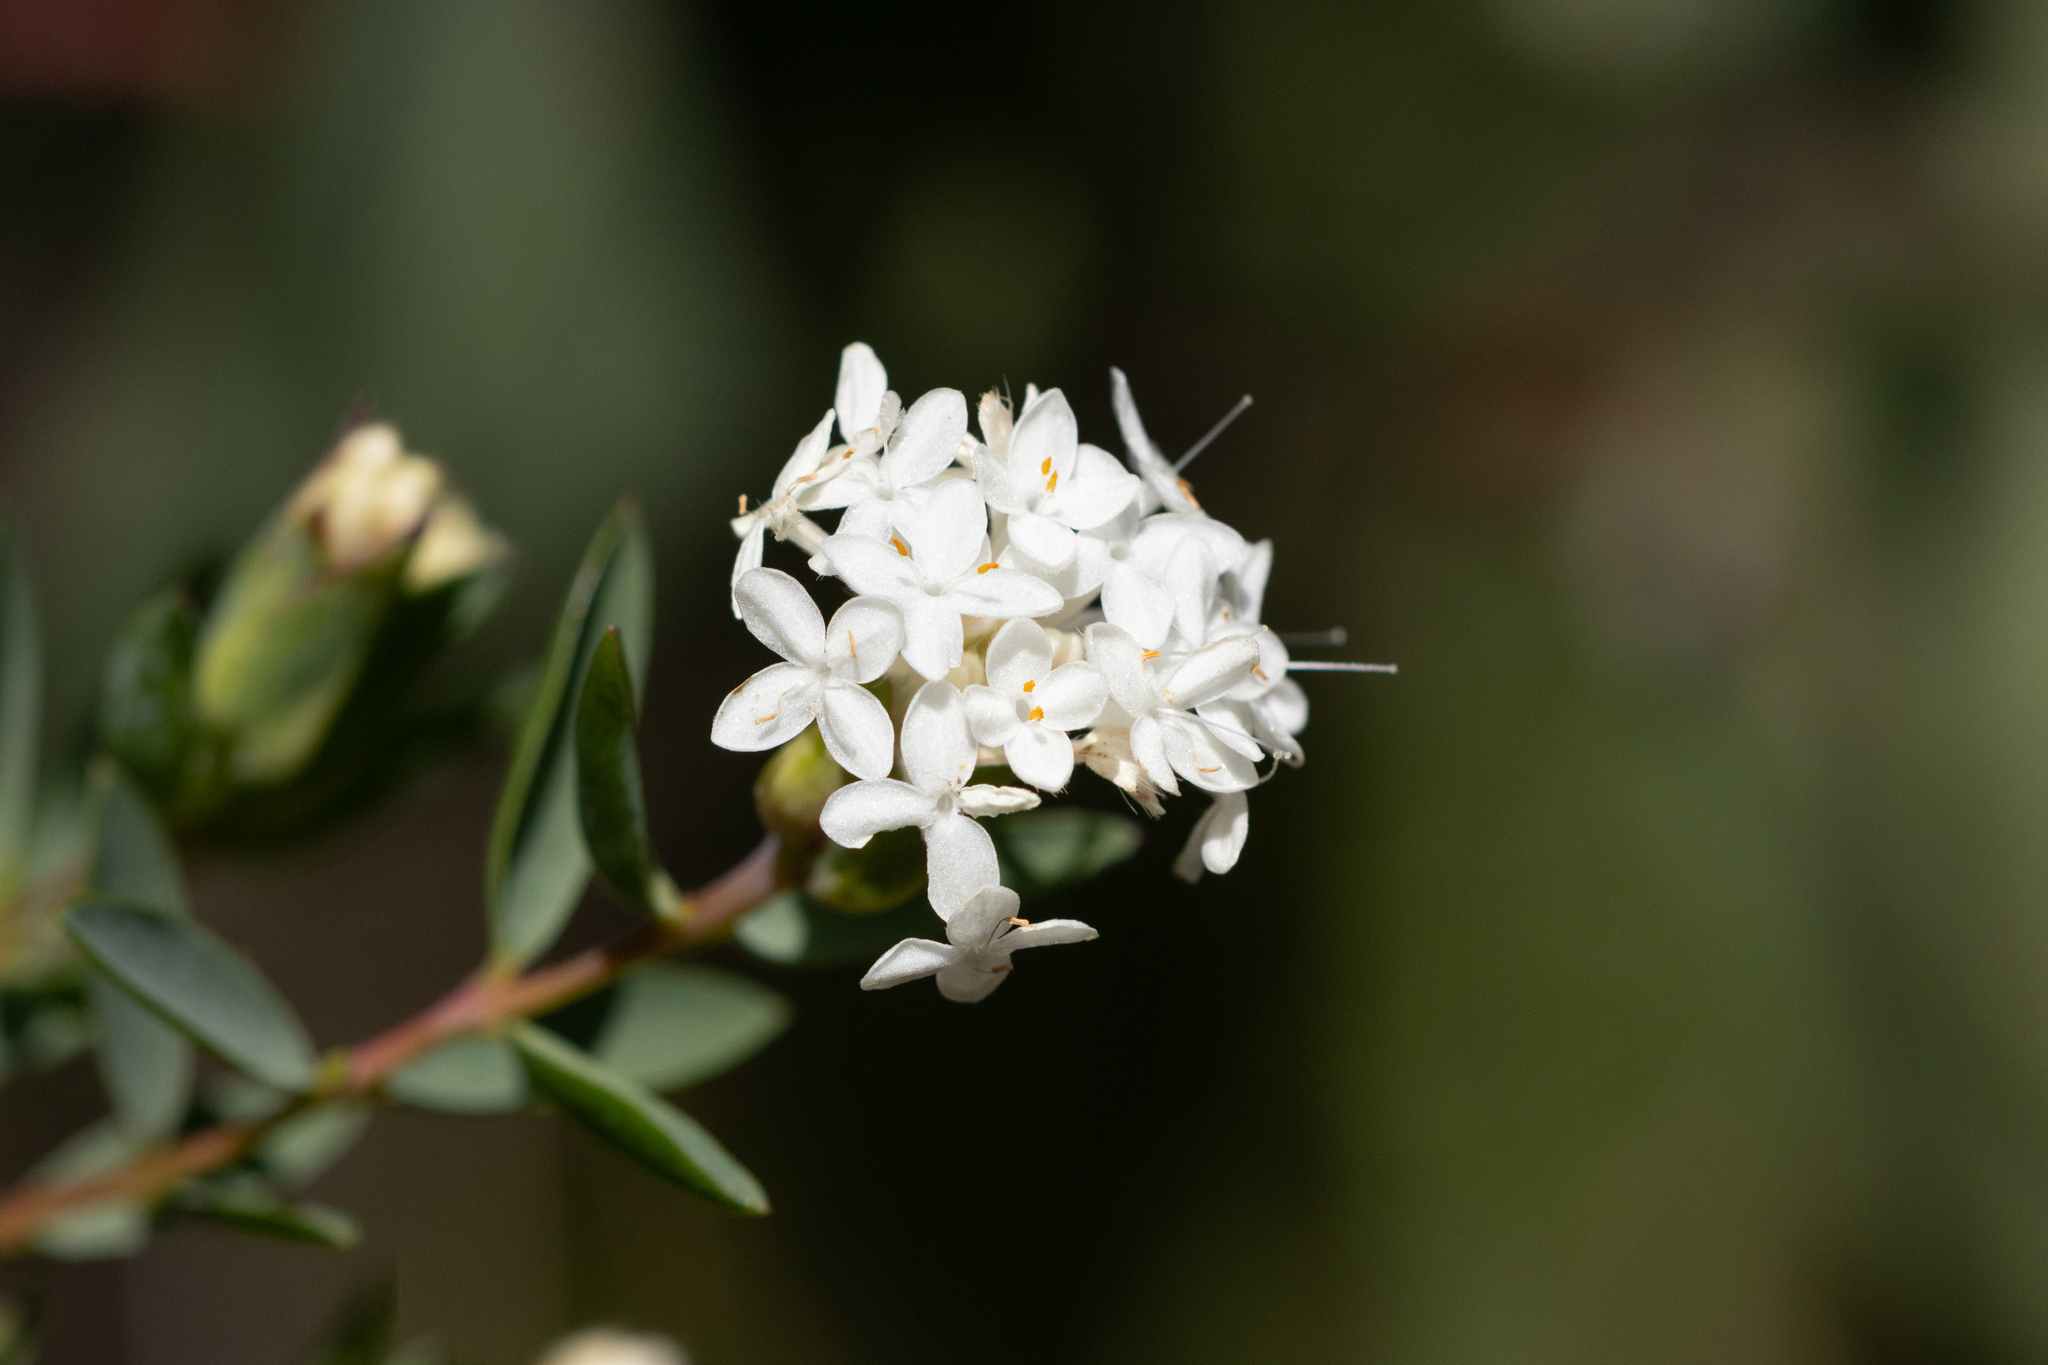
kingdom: Plantae
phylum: Tracheophyta
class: Magnoliopsida
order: Malvales
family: Thymelaeaceae
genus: Pimelea
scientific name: Pimelea glauca
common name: Smooth riceflower
